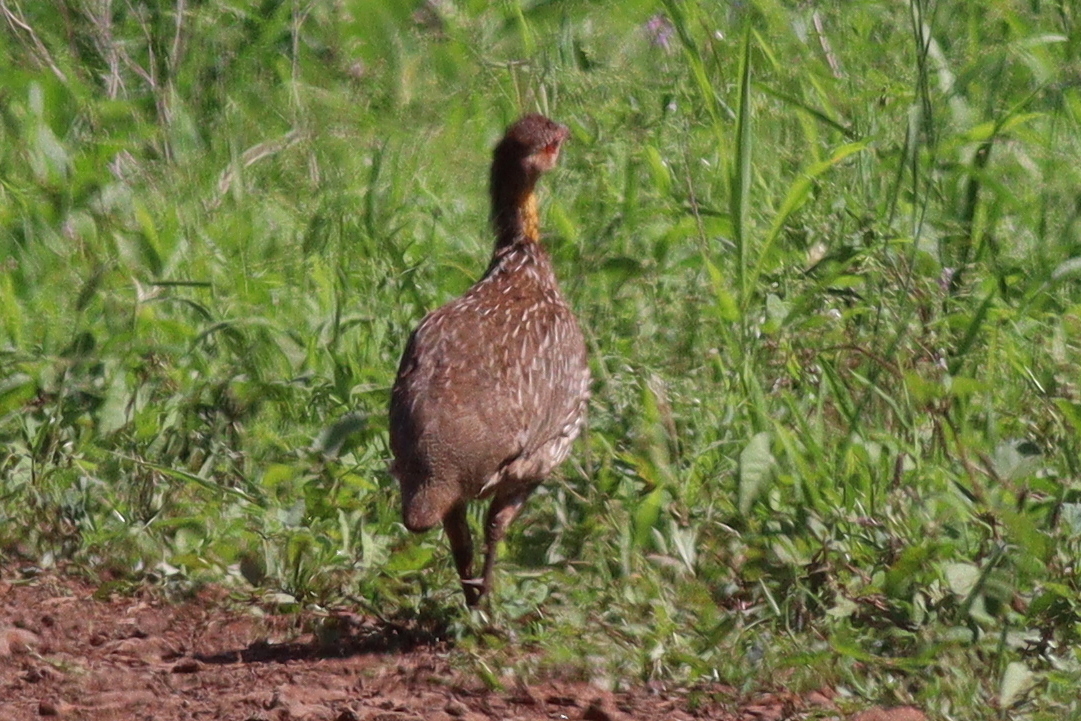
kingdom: Animalia
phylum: Chordata
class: Aves
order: Galliformes
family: Phasianidae
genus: Pternistis
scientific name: Pternistis leucoscepus
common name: Yellow-necked spurfowl
